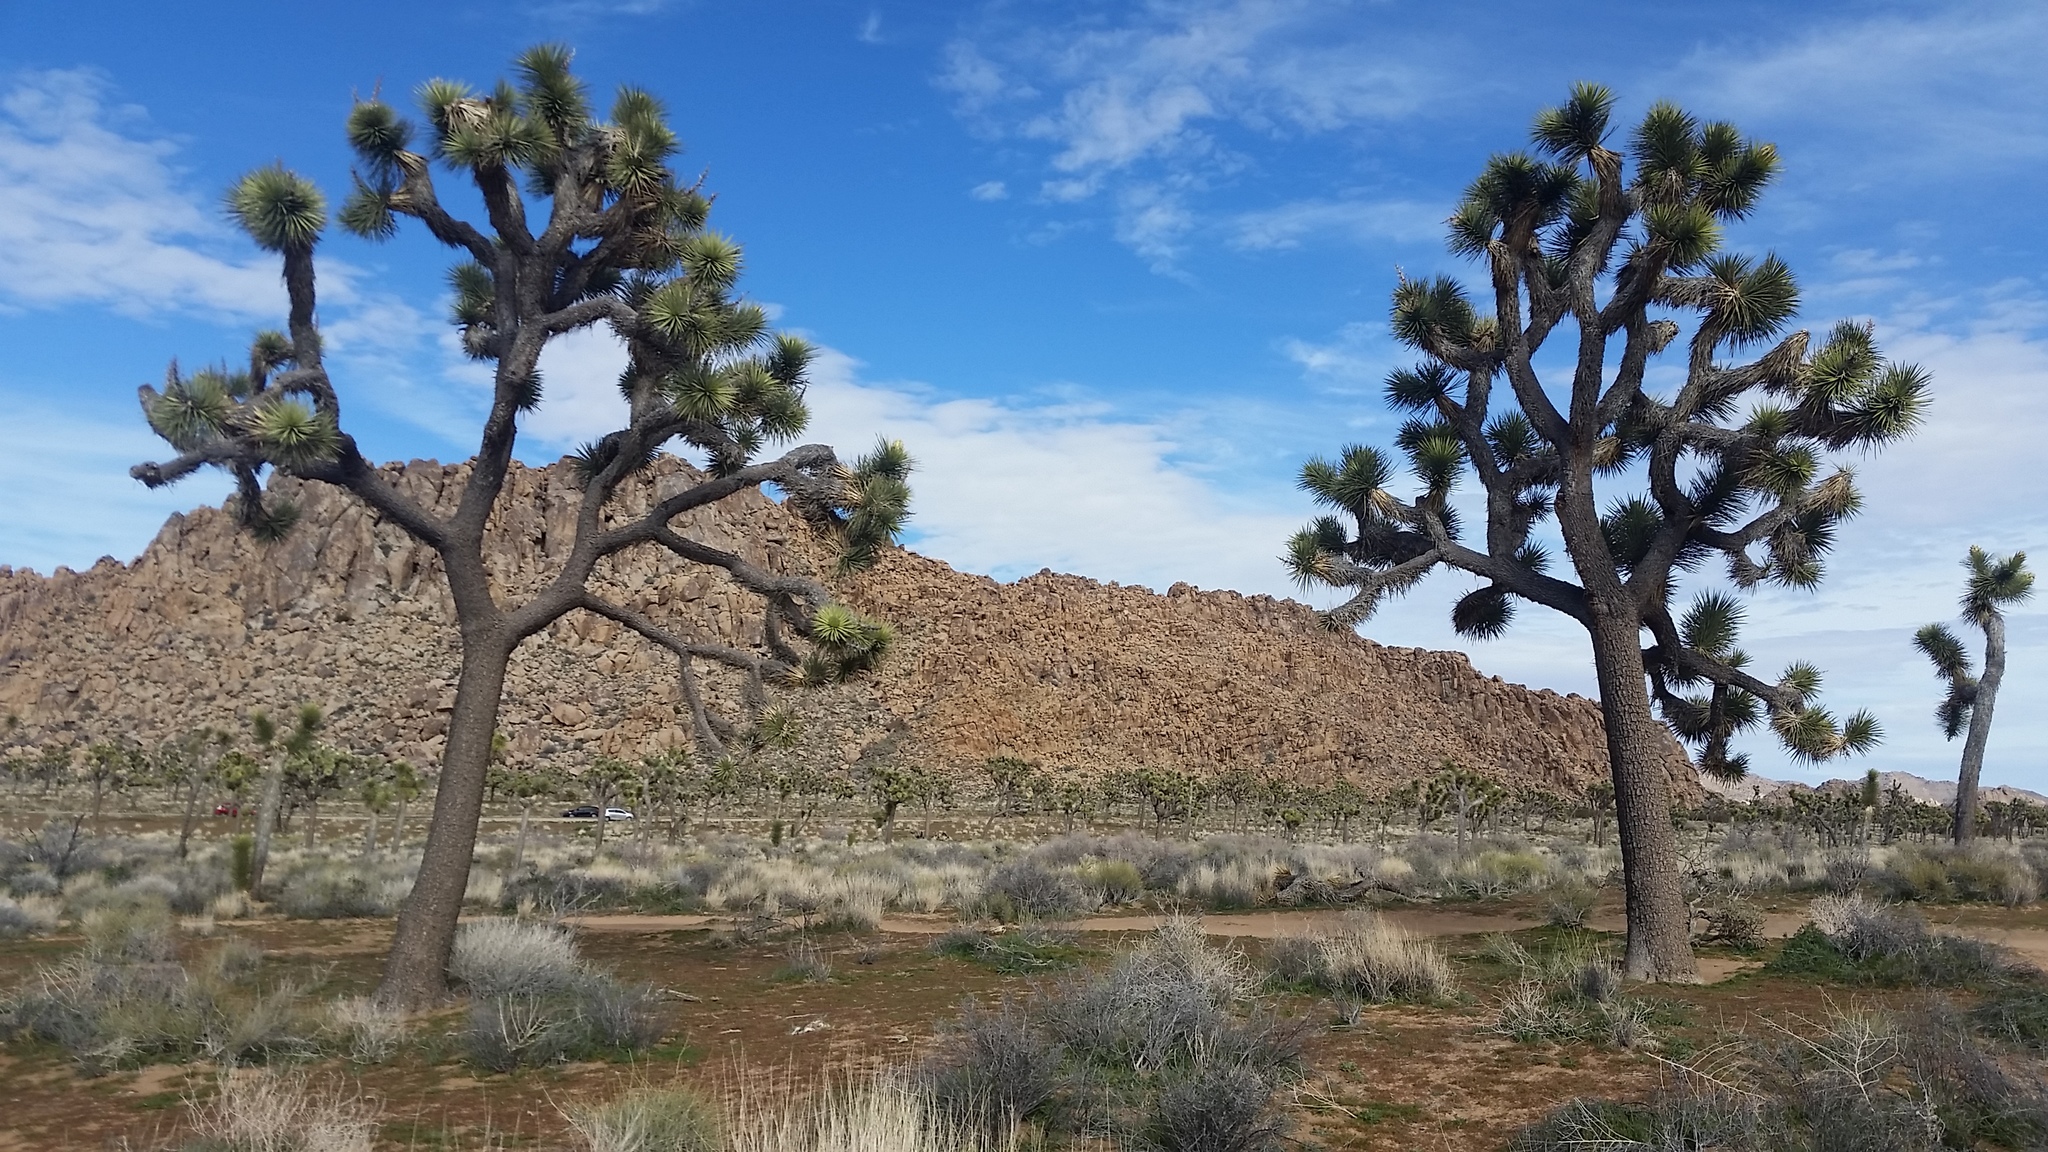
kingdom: Plantae
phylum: Tracheophyta
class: Liliopsida
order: Asparagales
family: Asparagaceae
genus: Yucca
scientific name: Yucca brevifolia
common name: Joshua tree
